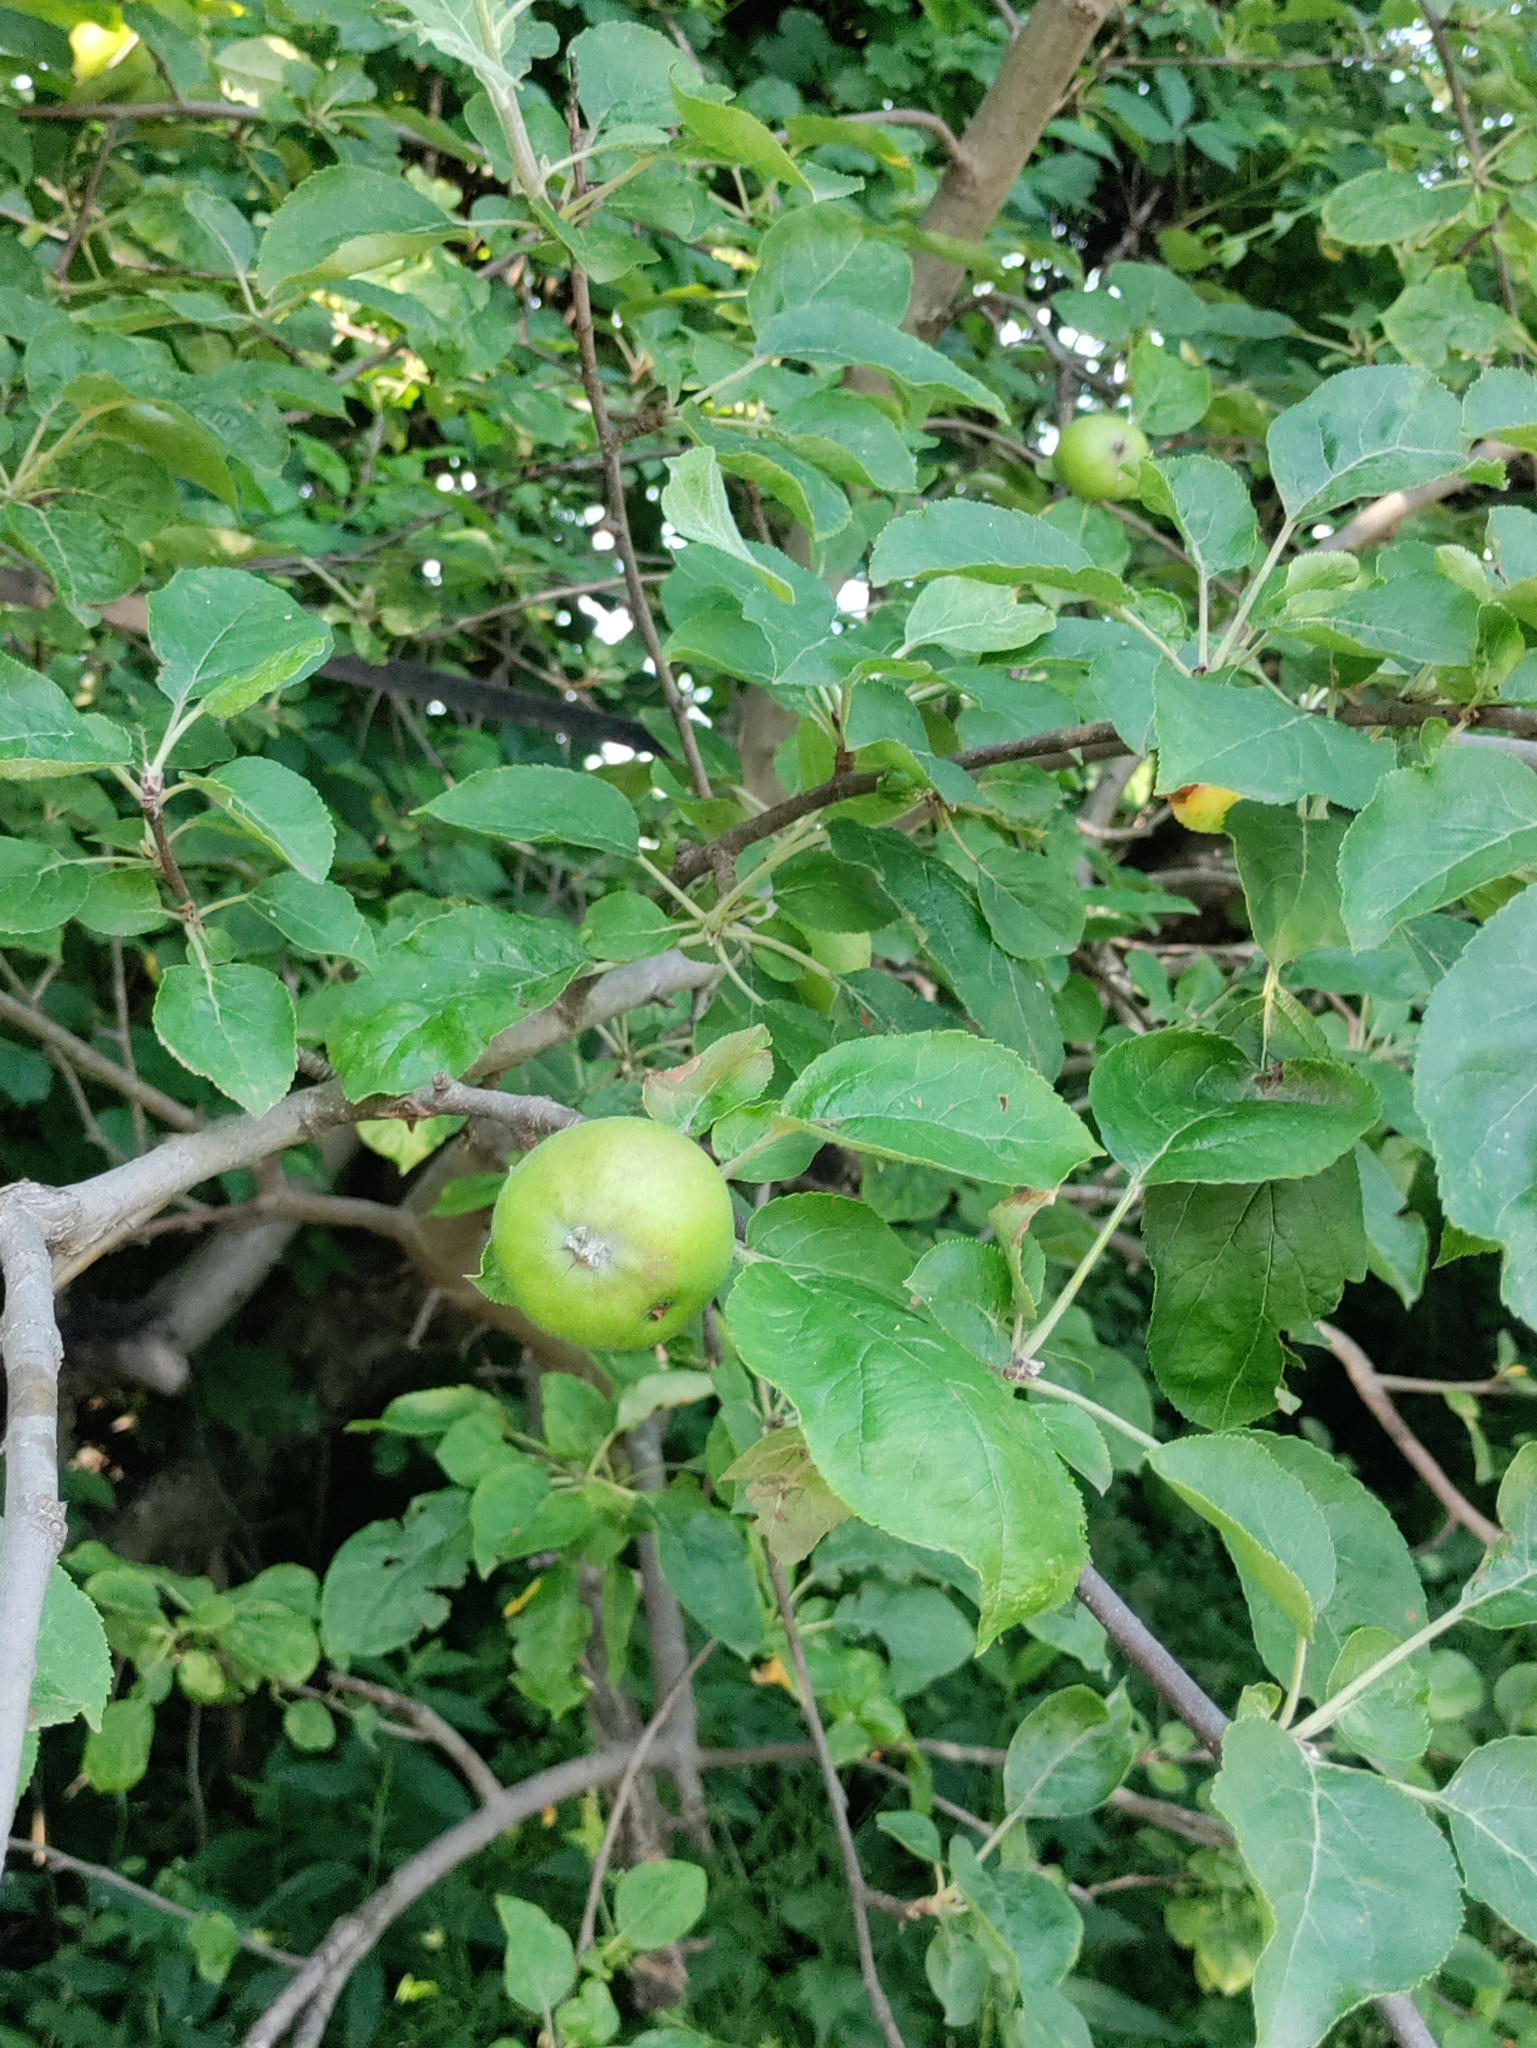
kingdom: Plantae
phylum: Tracheophyta
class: Magnoliopsida
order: Rosales
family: Rosaceae
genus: Malus
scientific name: Malus domestica
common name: Apple
